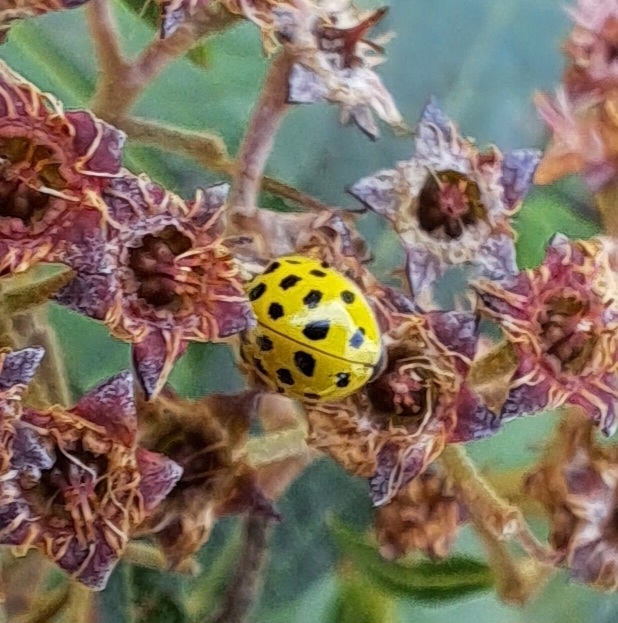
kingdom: Animalia
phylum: Arthropoda
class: Insecta
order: Coleoptera
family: Coccinellidae
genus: Psyllobora
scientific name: Psyllobora vigintiduopunctata
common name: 22-spot ladybird
